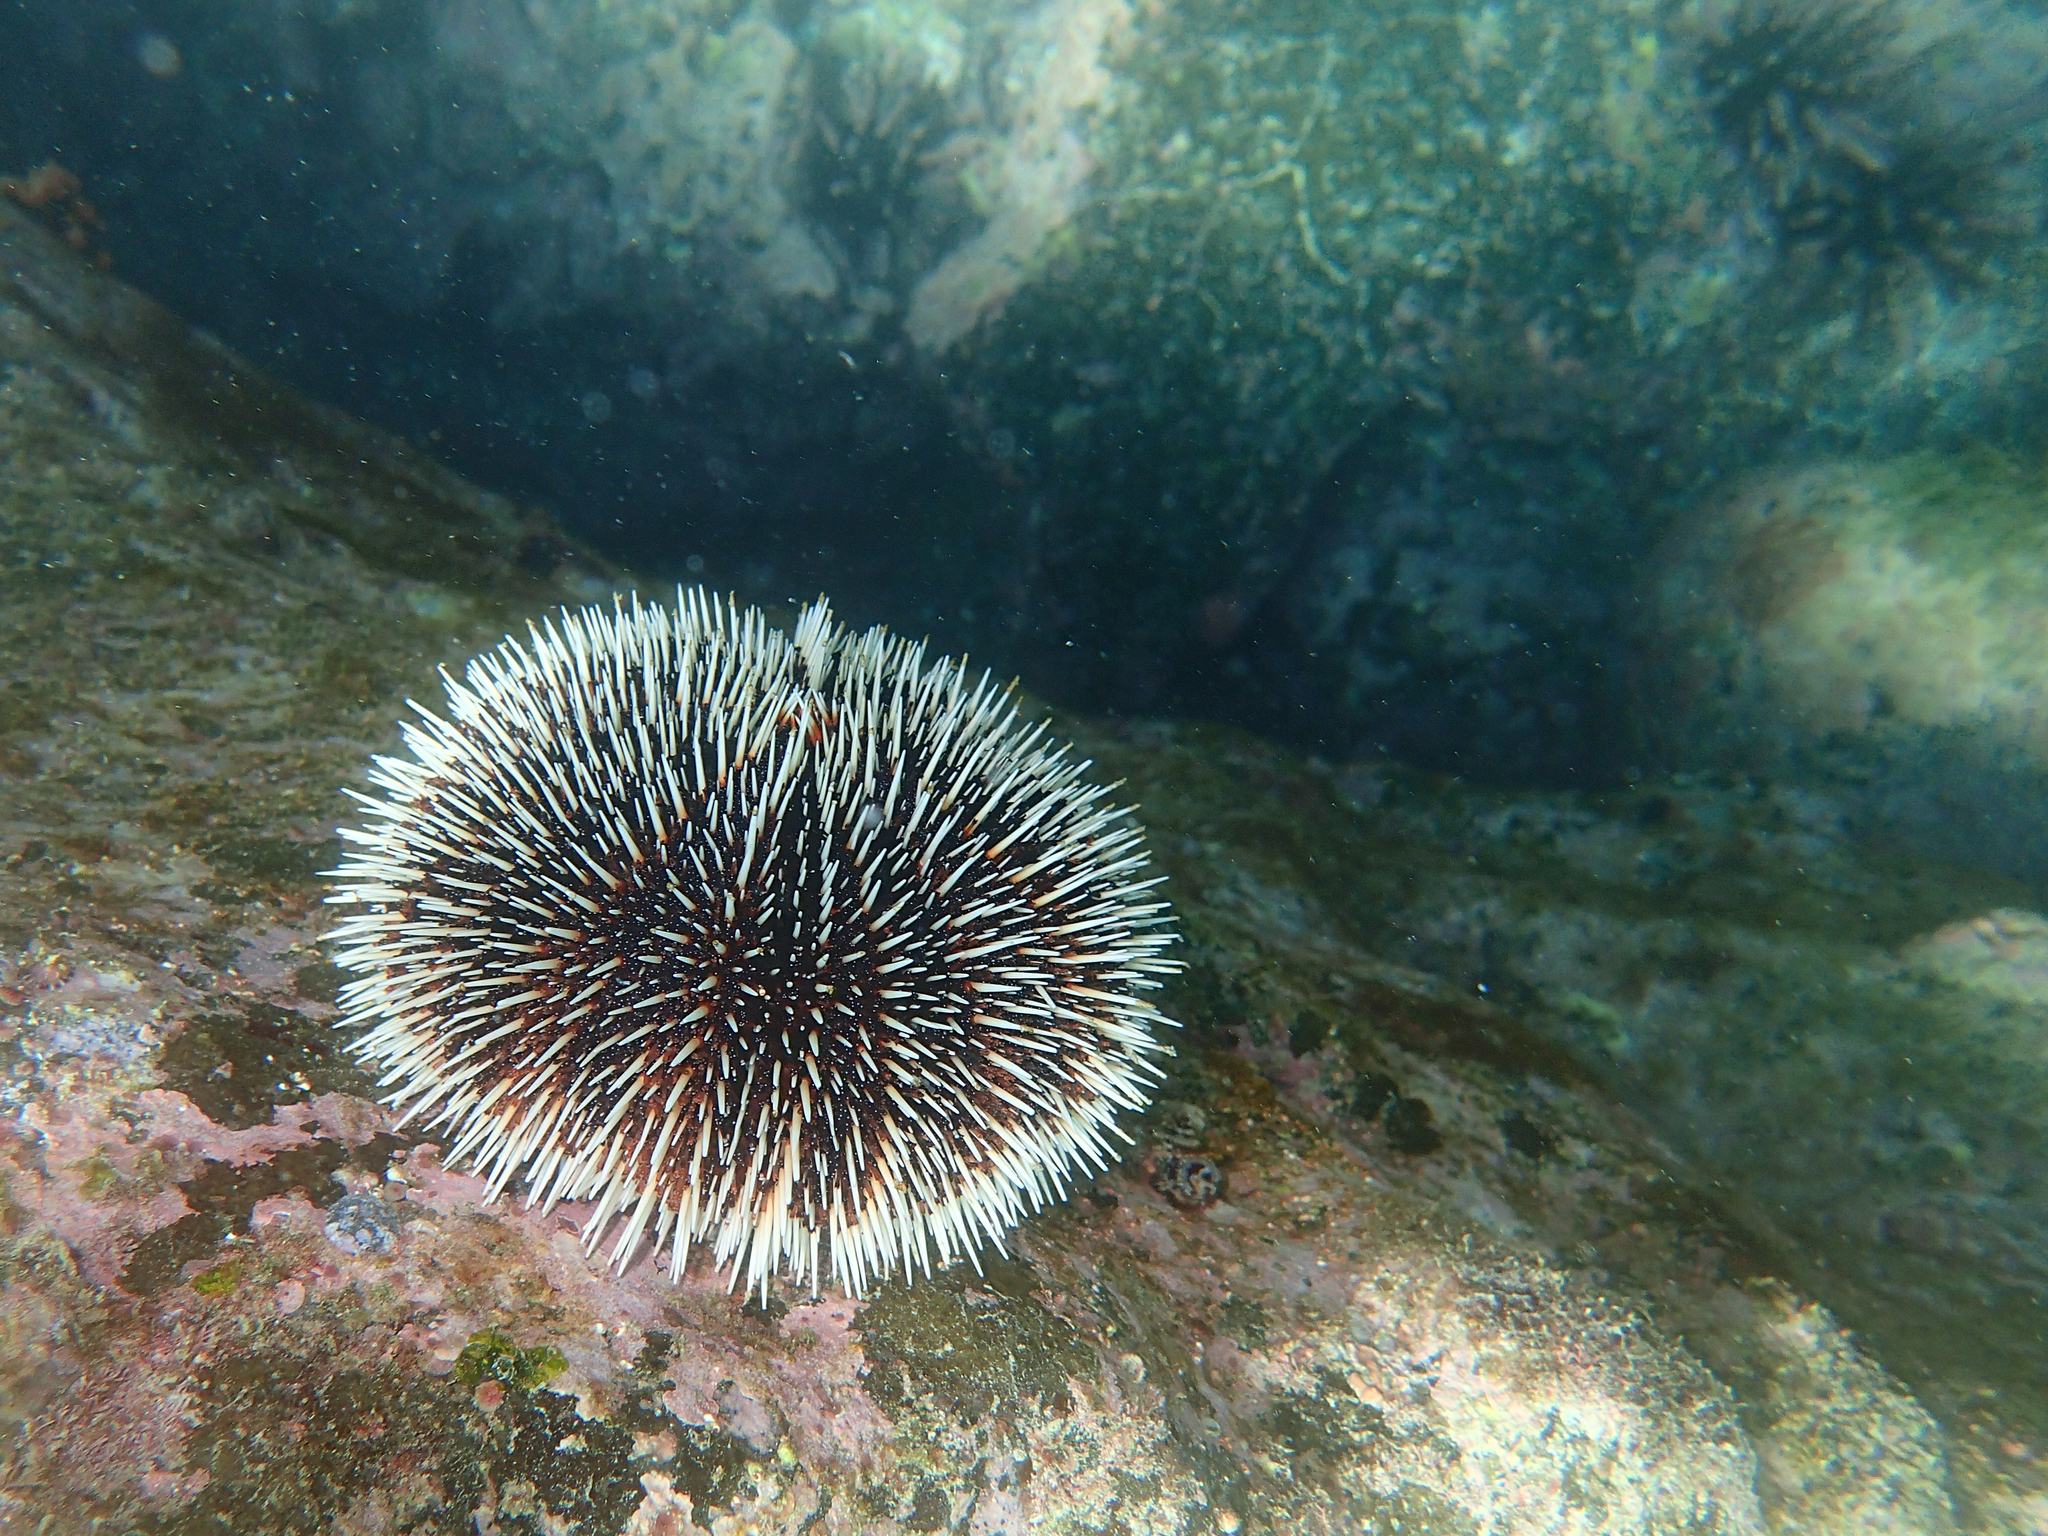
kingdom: Animalia
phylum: Echinodermata
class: Echinoidea
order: Camarodonta
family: Toxopneustidae
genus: Tripneustes
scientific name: Tripneustes depressus
